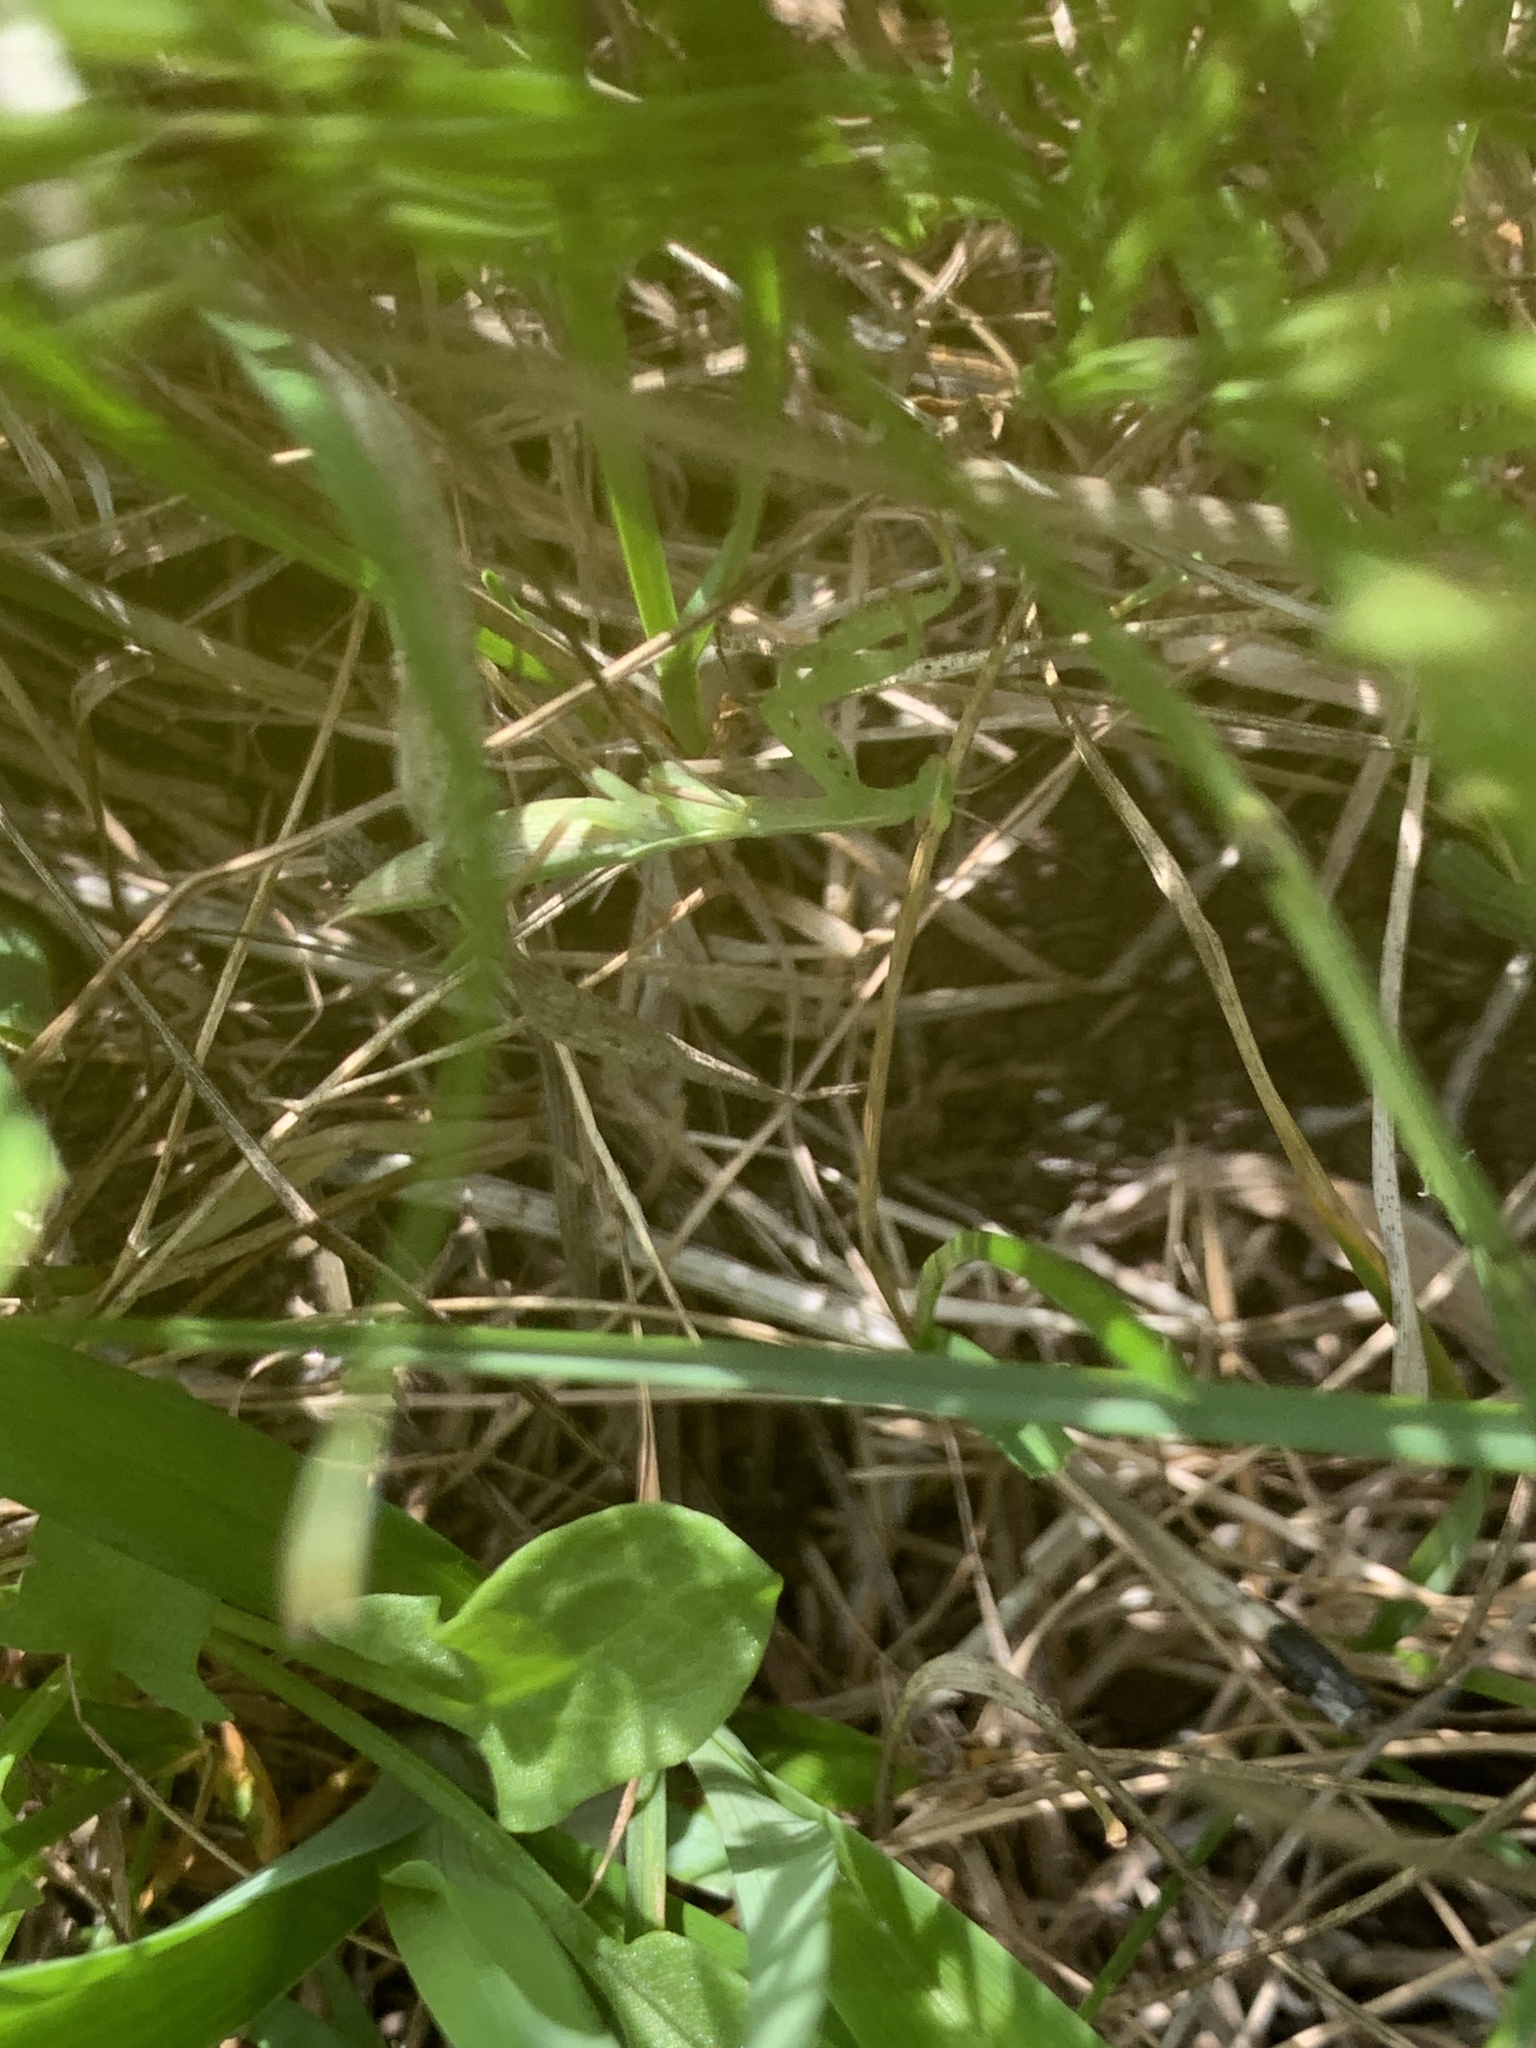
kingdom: Animalia
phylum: Arthropoda
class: Insecta
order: Mantodea
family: Mantidae
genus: Mantis
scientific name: Mantis religiosa
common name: Praying mantis
